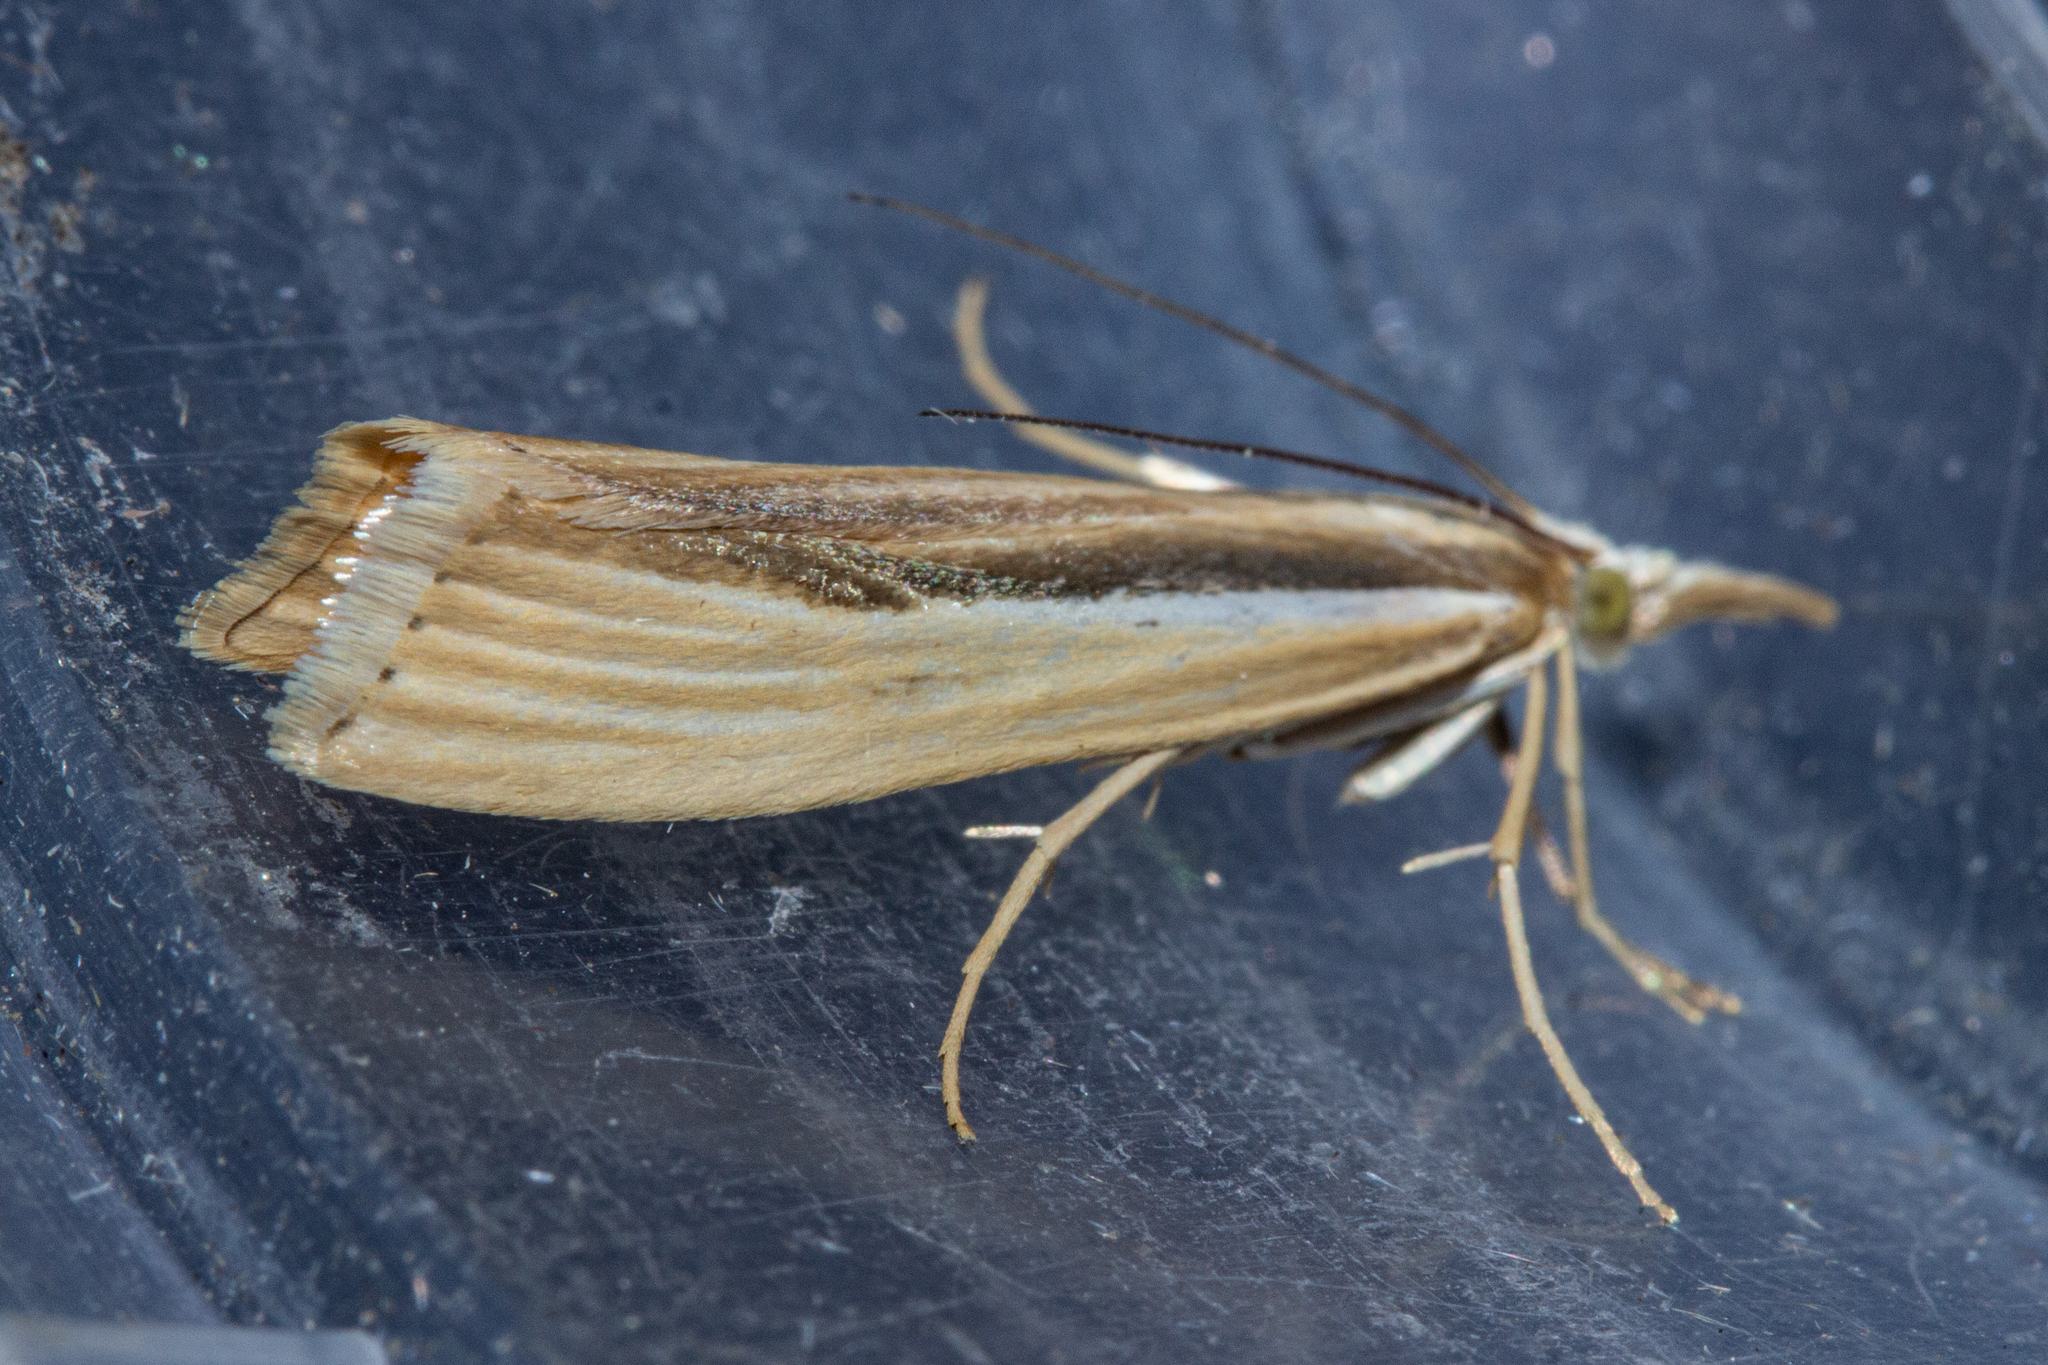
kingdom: Animalia
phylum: Arthropoda
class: Insecta
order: Lepidoptera
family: Crambidae
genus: Orocrambus
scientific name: Orocrambus ramosellus
